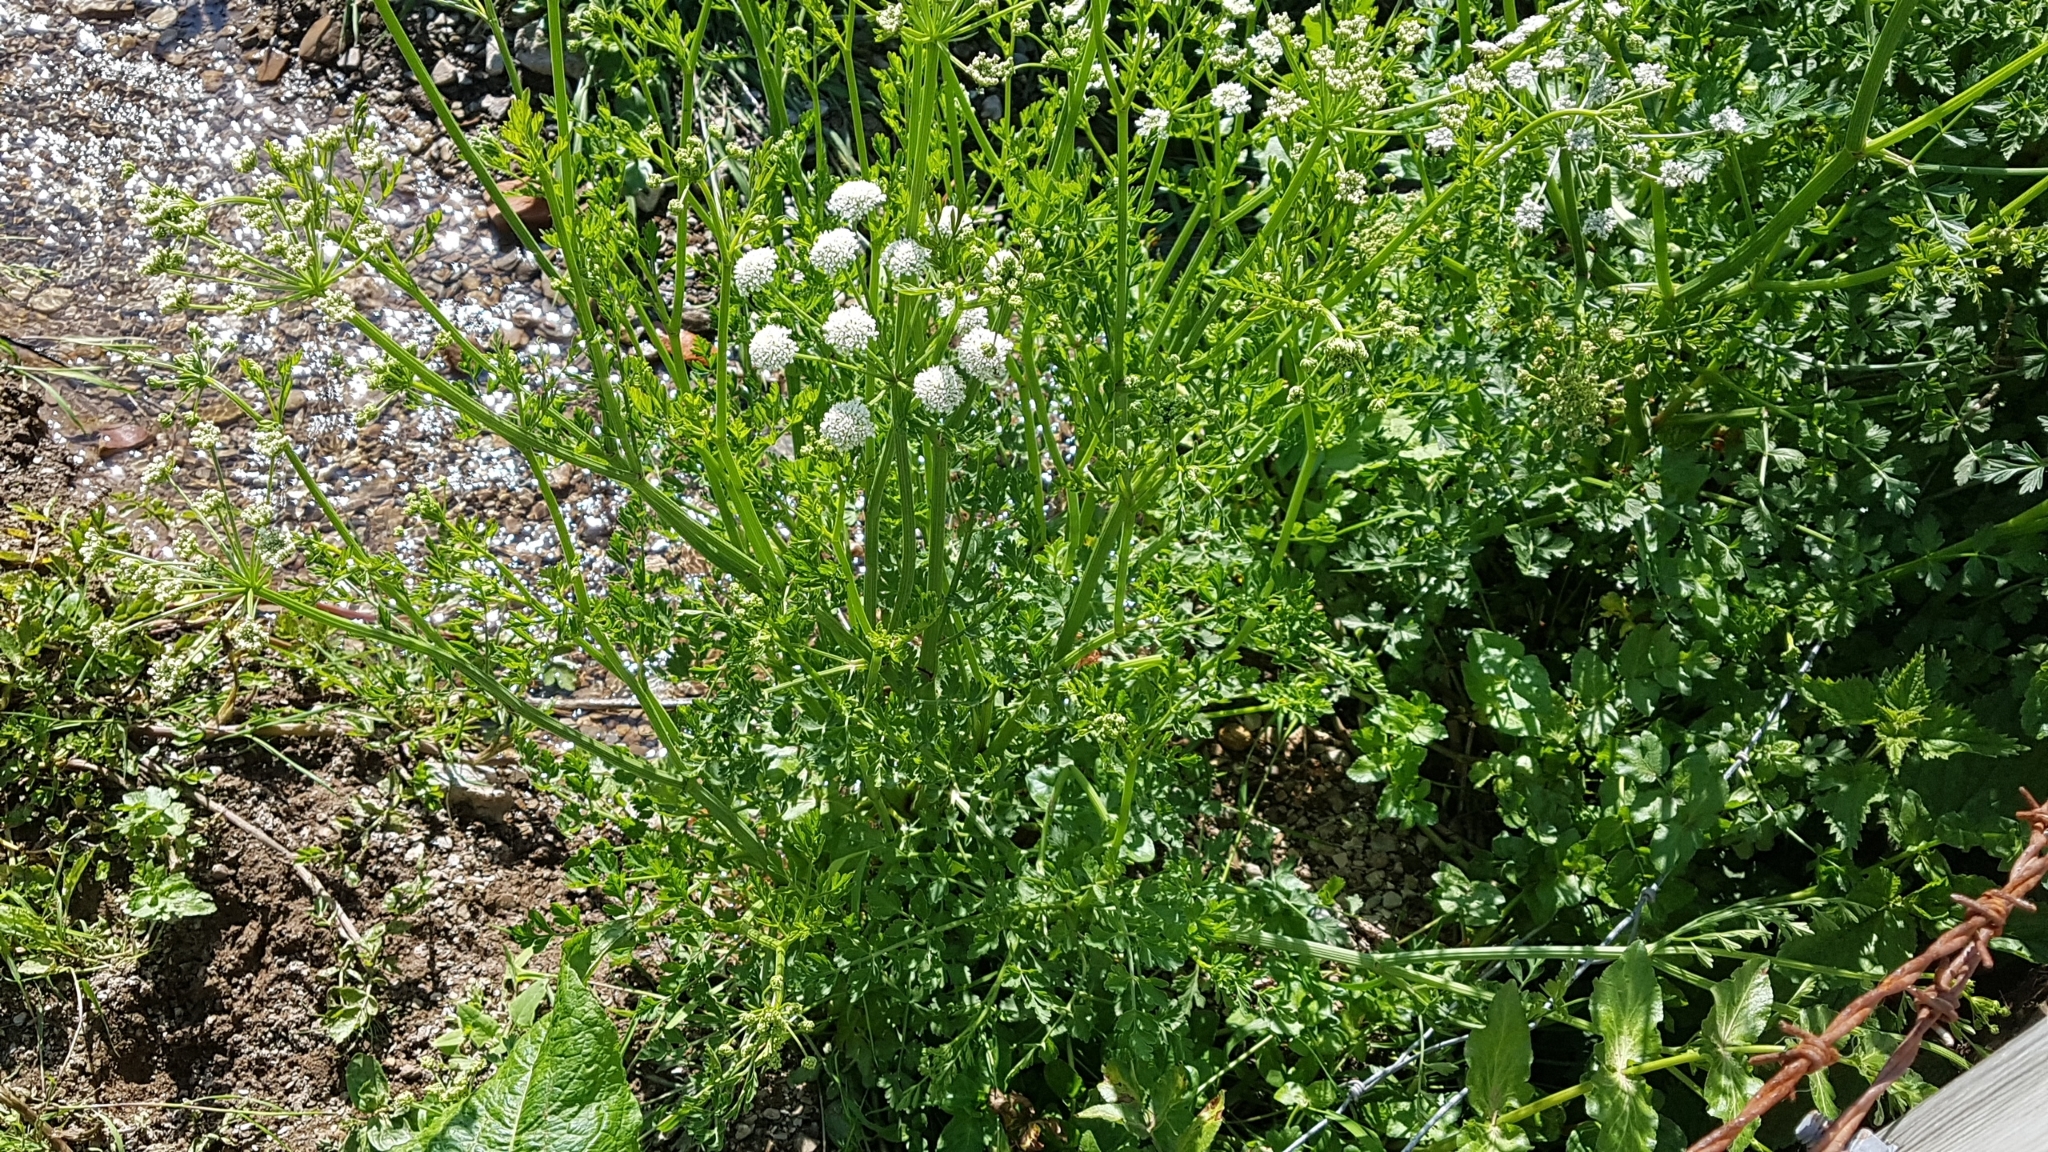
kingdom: Plantae
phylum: Tracheophyta
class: Magnoliopsida
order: Apiales
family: Apiaceae
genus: Oenanthe
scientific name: Oenanthe crocata
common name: Hemlock water-dropwort
